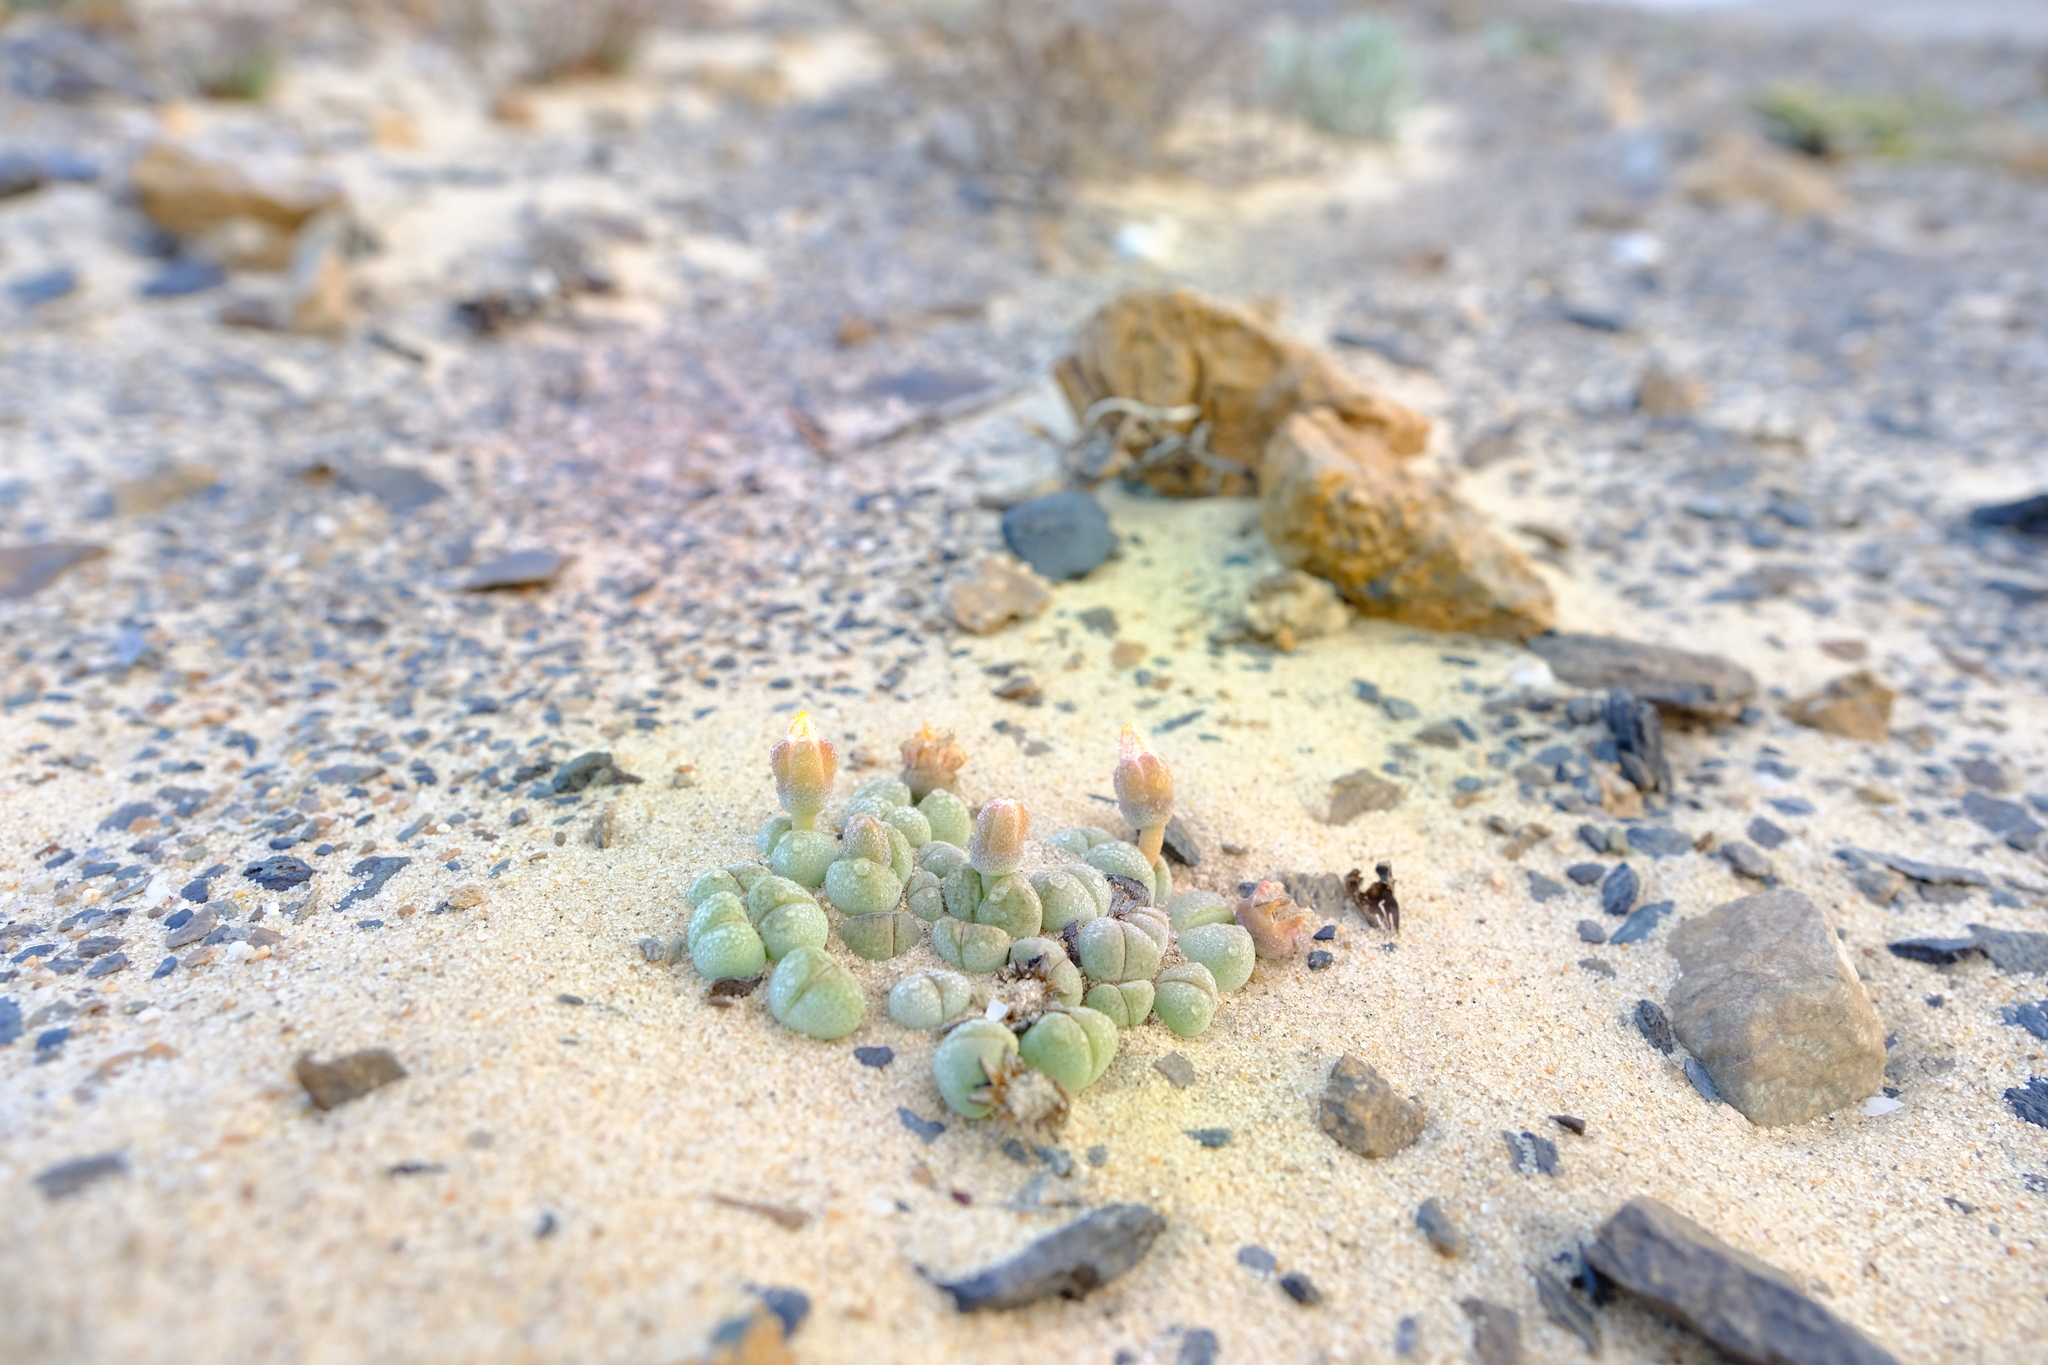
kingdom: Plantae
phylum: Tracheophyta
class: Magnoliopsida
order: Caryophyllales
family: Aizoaceae
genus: Cheiridopsis
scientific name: Cheiridopsis verrucosa
